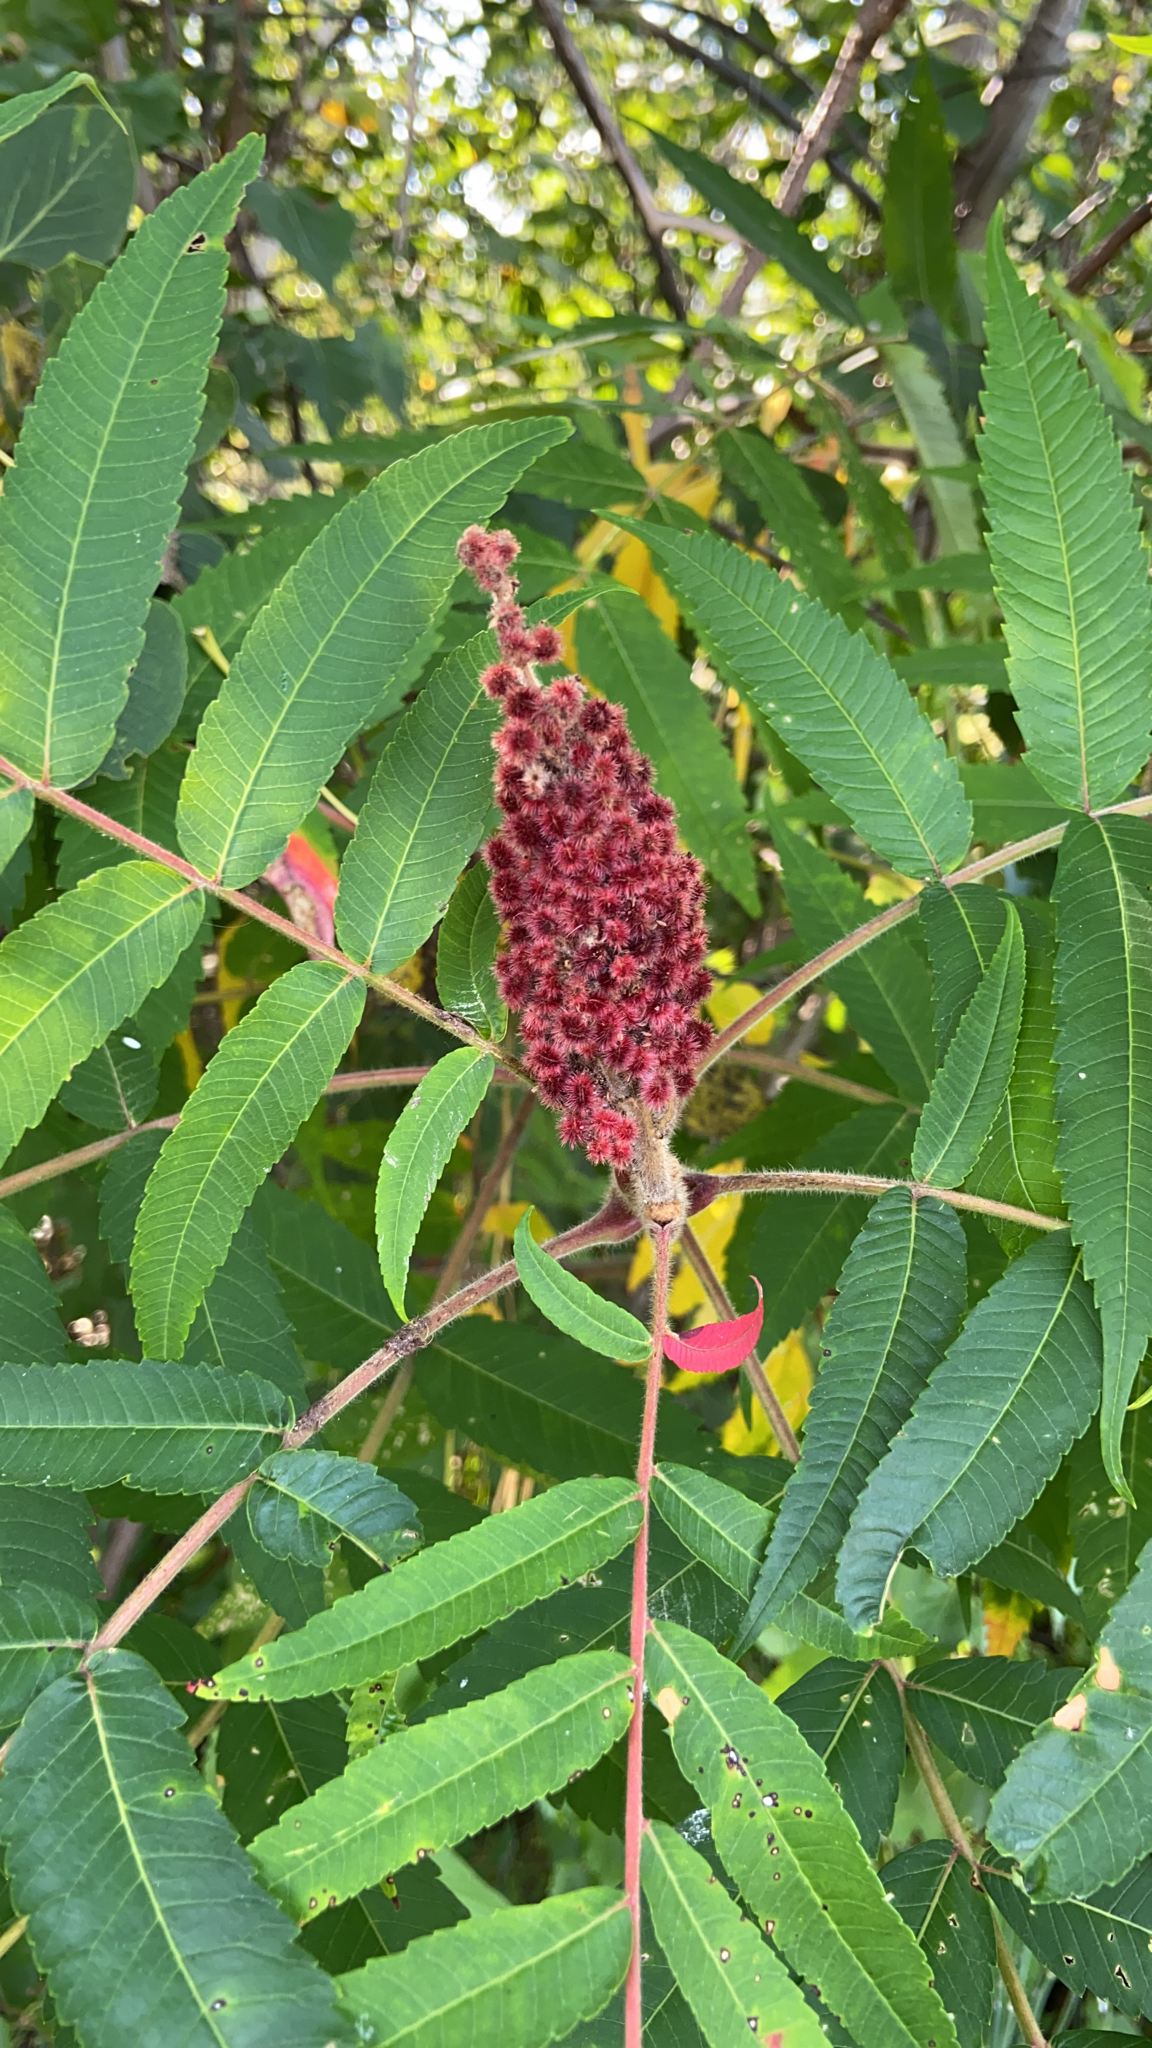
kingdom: Plantae
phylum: Tracheophyta
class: Magnoliopsida
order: Sapindales
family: Anacardiaceae
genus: Rhus
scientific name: Rhus typhina
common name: Staghorn sumac
